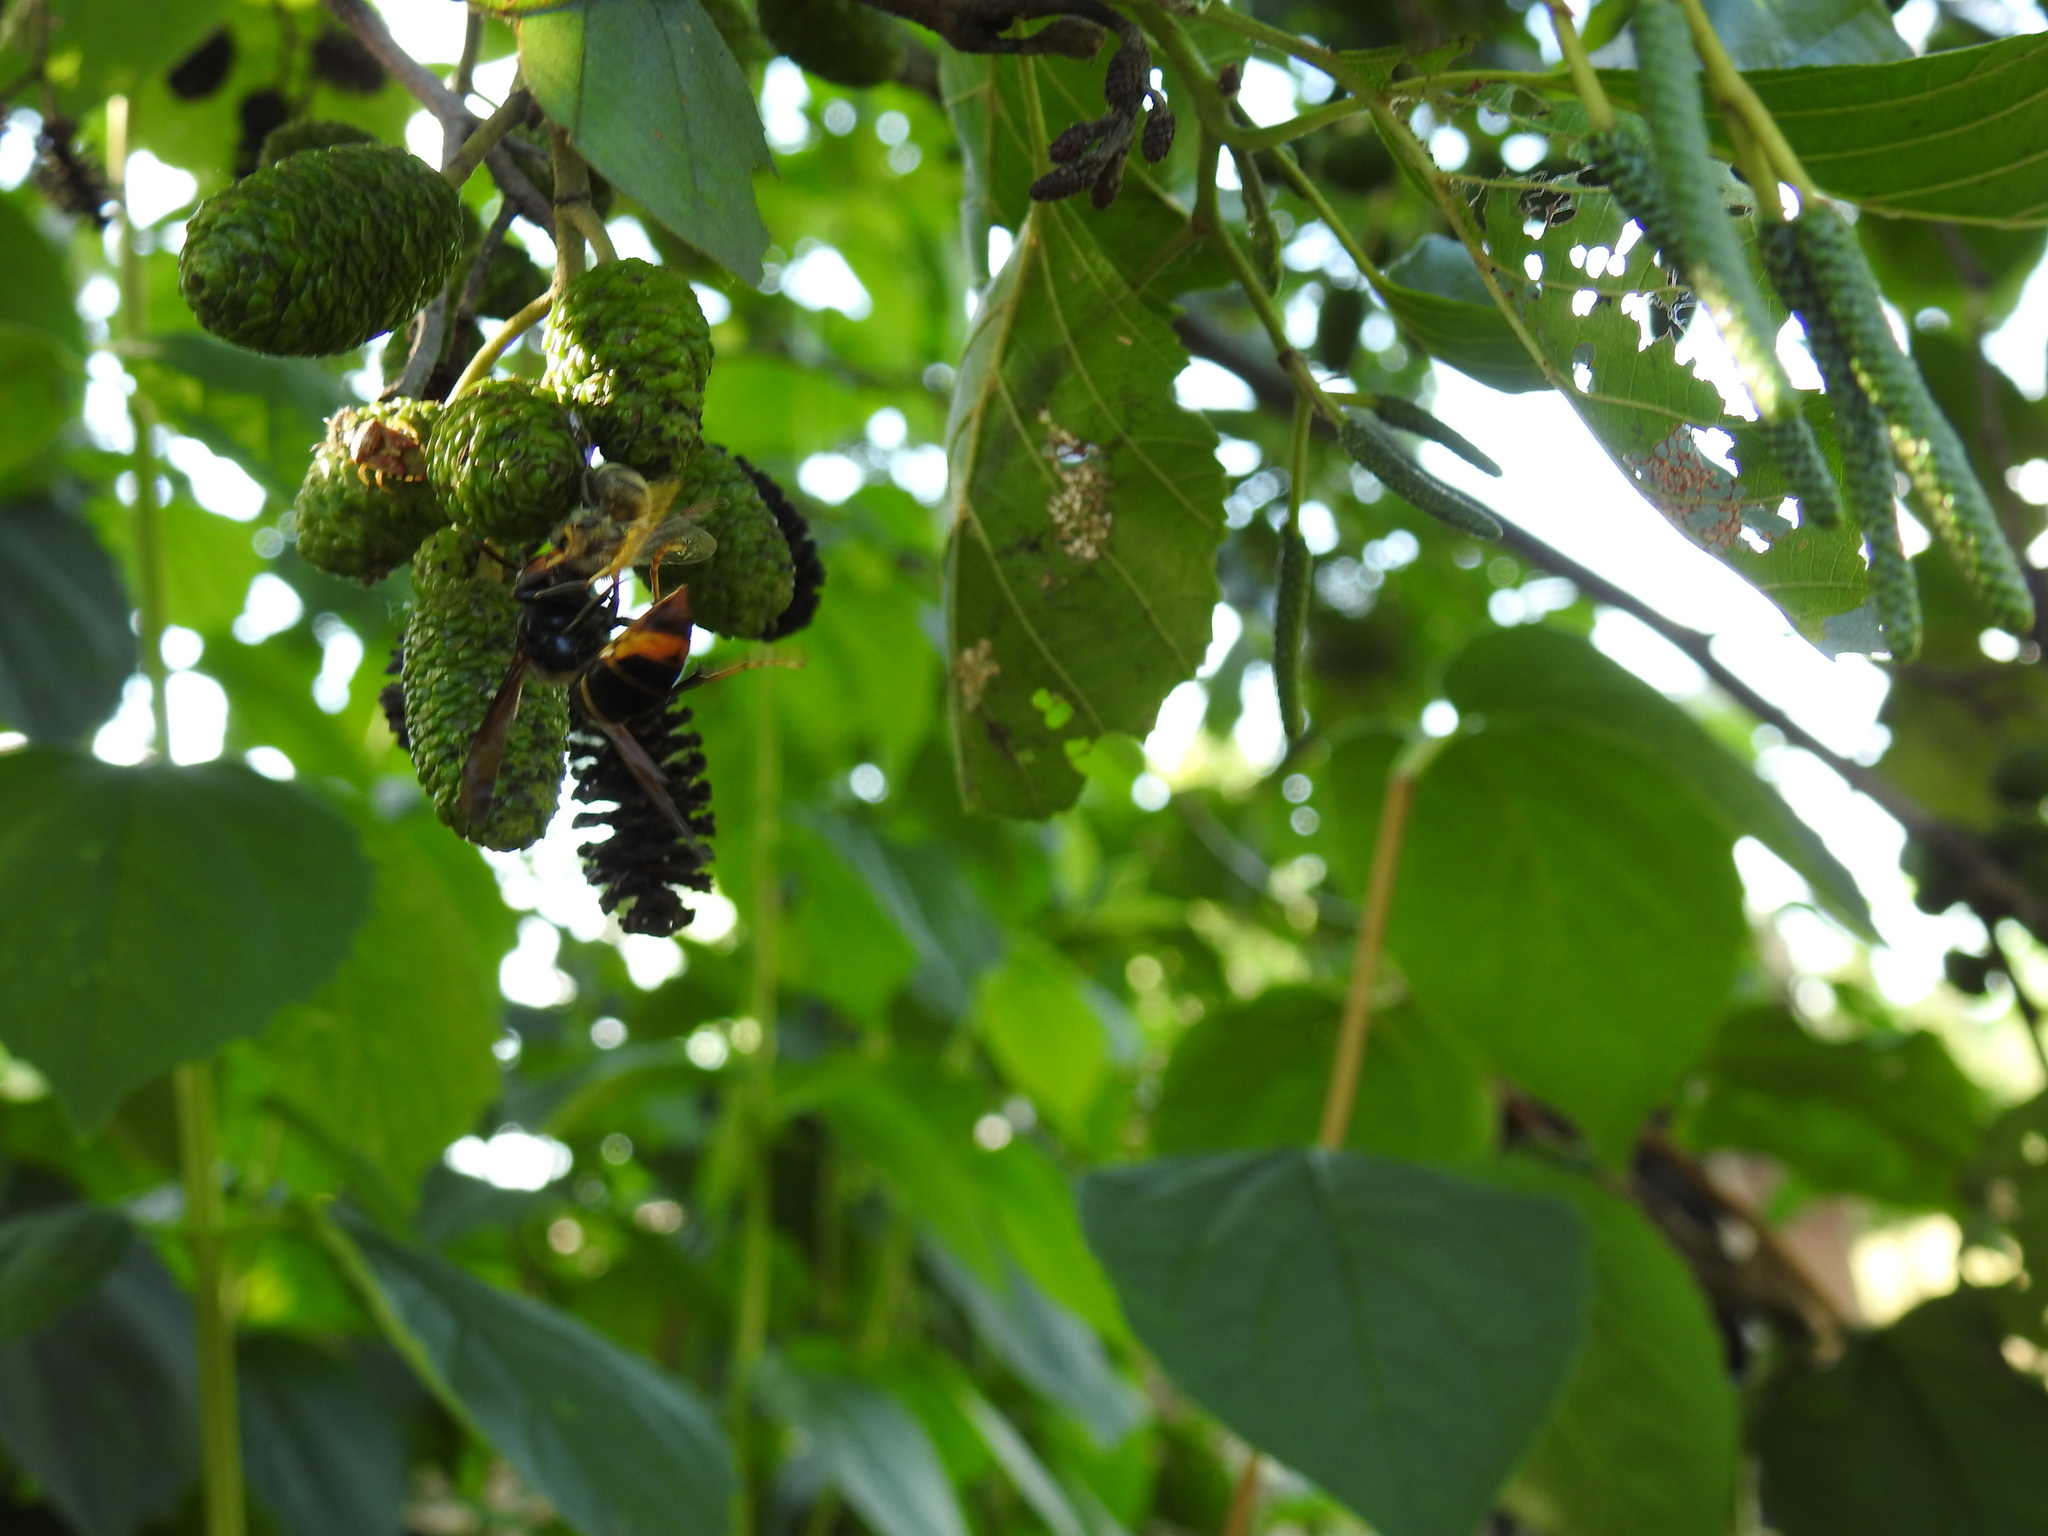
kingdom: Animalia
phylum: Arthropoda
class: Insecta
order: Hymenoptera
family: Vespidae
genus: Vespa
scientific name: Vespa velutina
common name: Asian hornet
